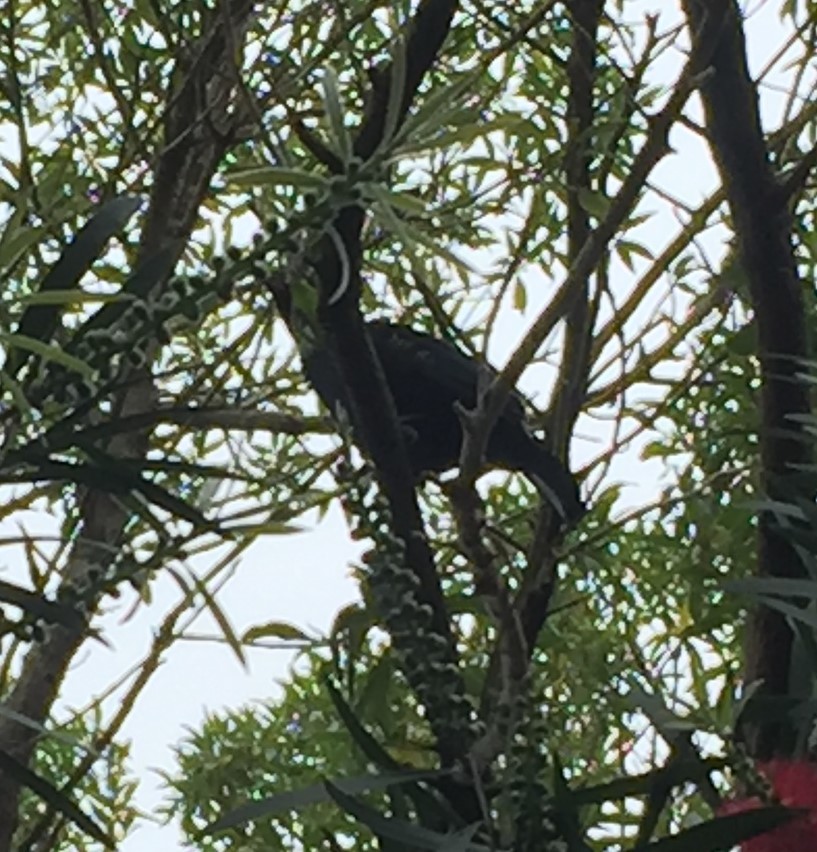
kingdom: Animalia
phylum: Chordata
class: Aves
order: Passeriformes
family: Meliphagidae
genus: Prosthemadera
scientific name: Prosthemadera novaeseelandiae
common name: Tui
